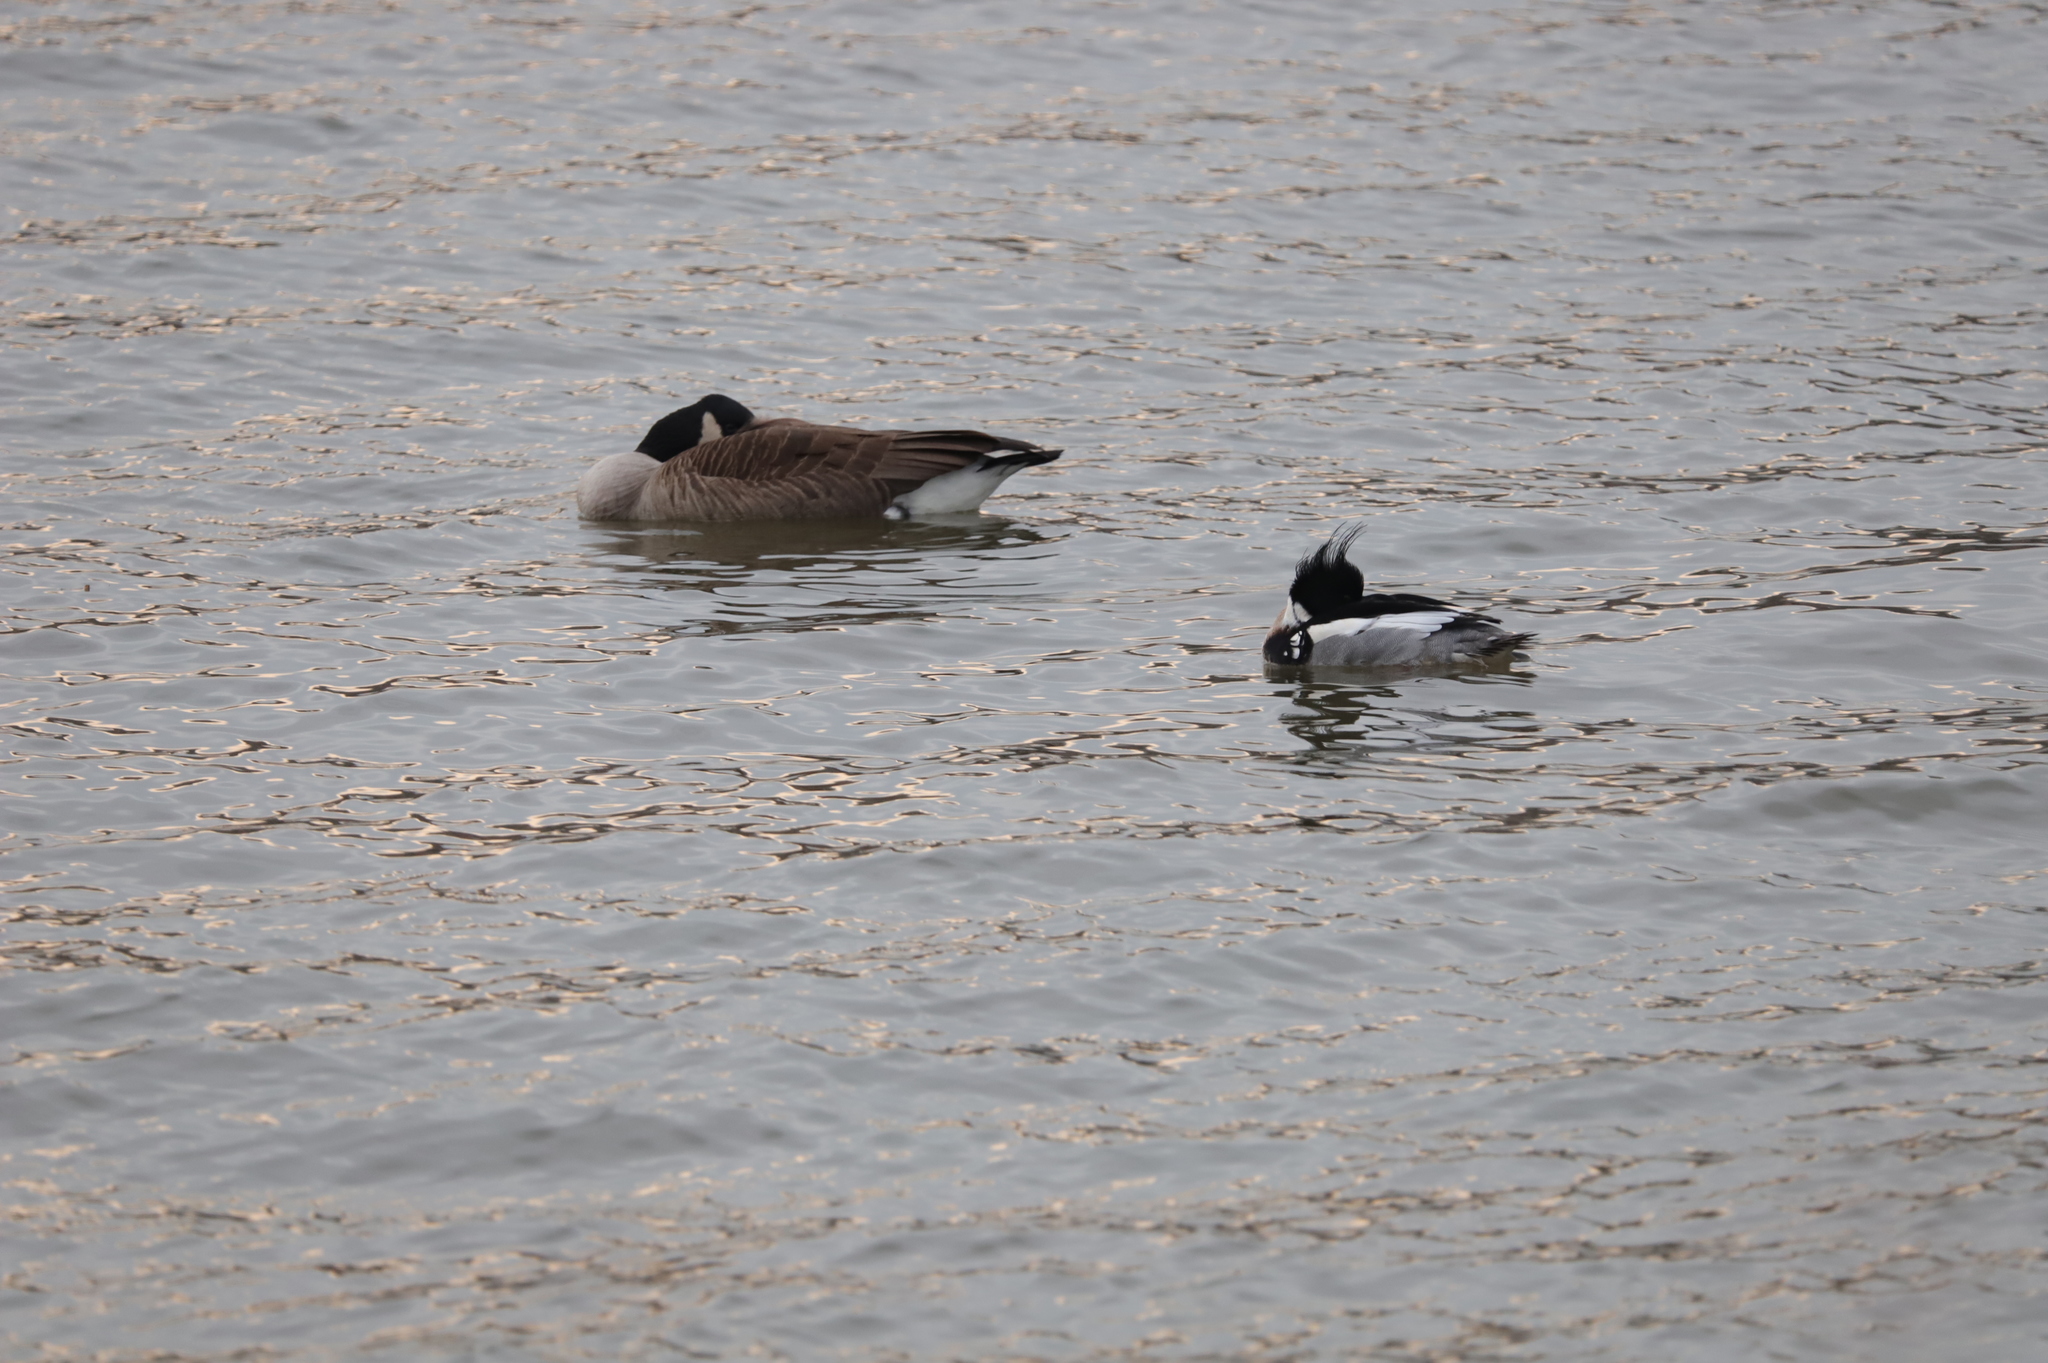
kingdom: Animalia
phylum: Chordata
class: Aves
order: Anseriformes
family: Anatidae
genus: Branta
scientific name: Branta canadensis
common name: Canada goose
